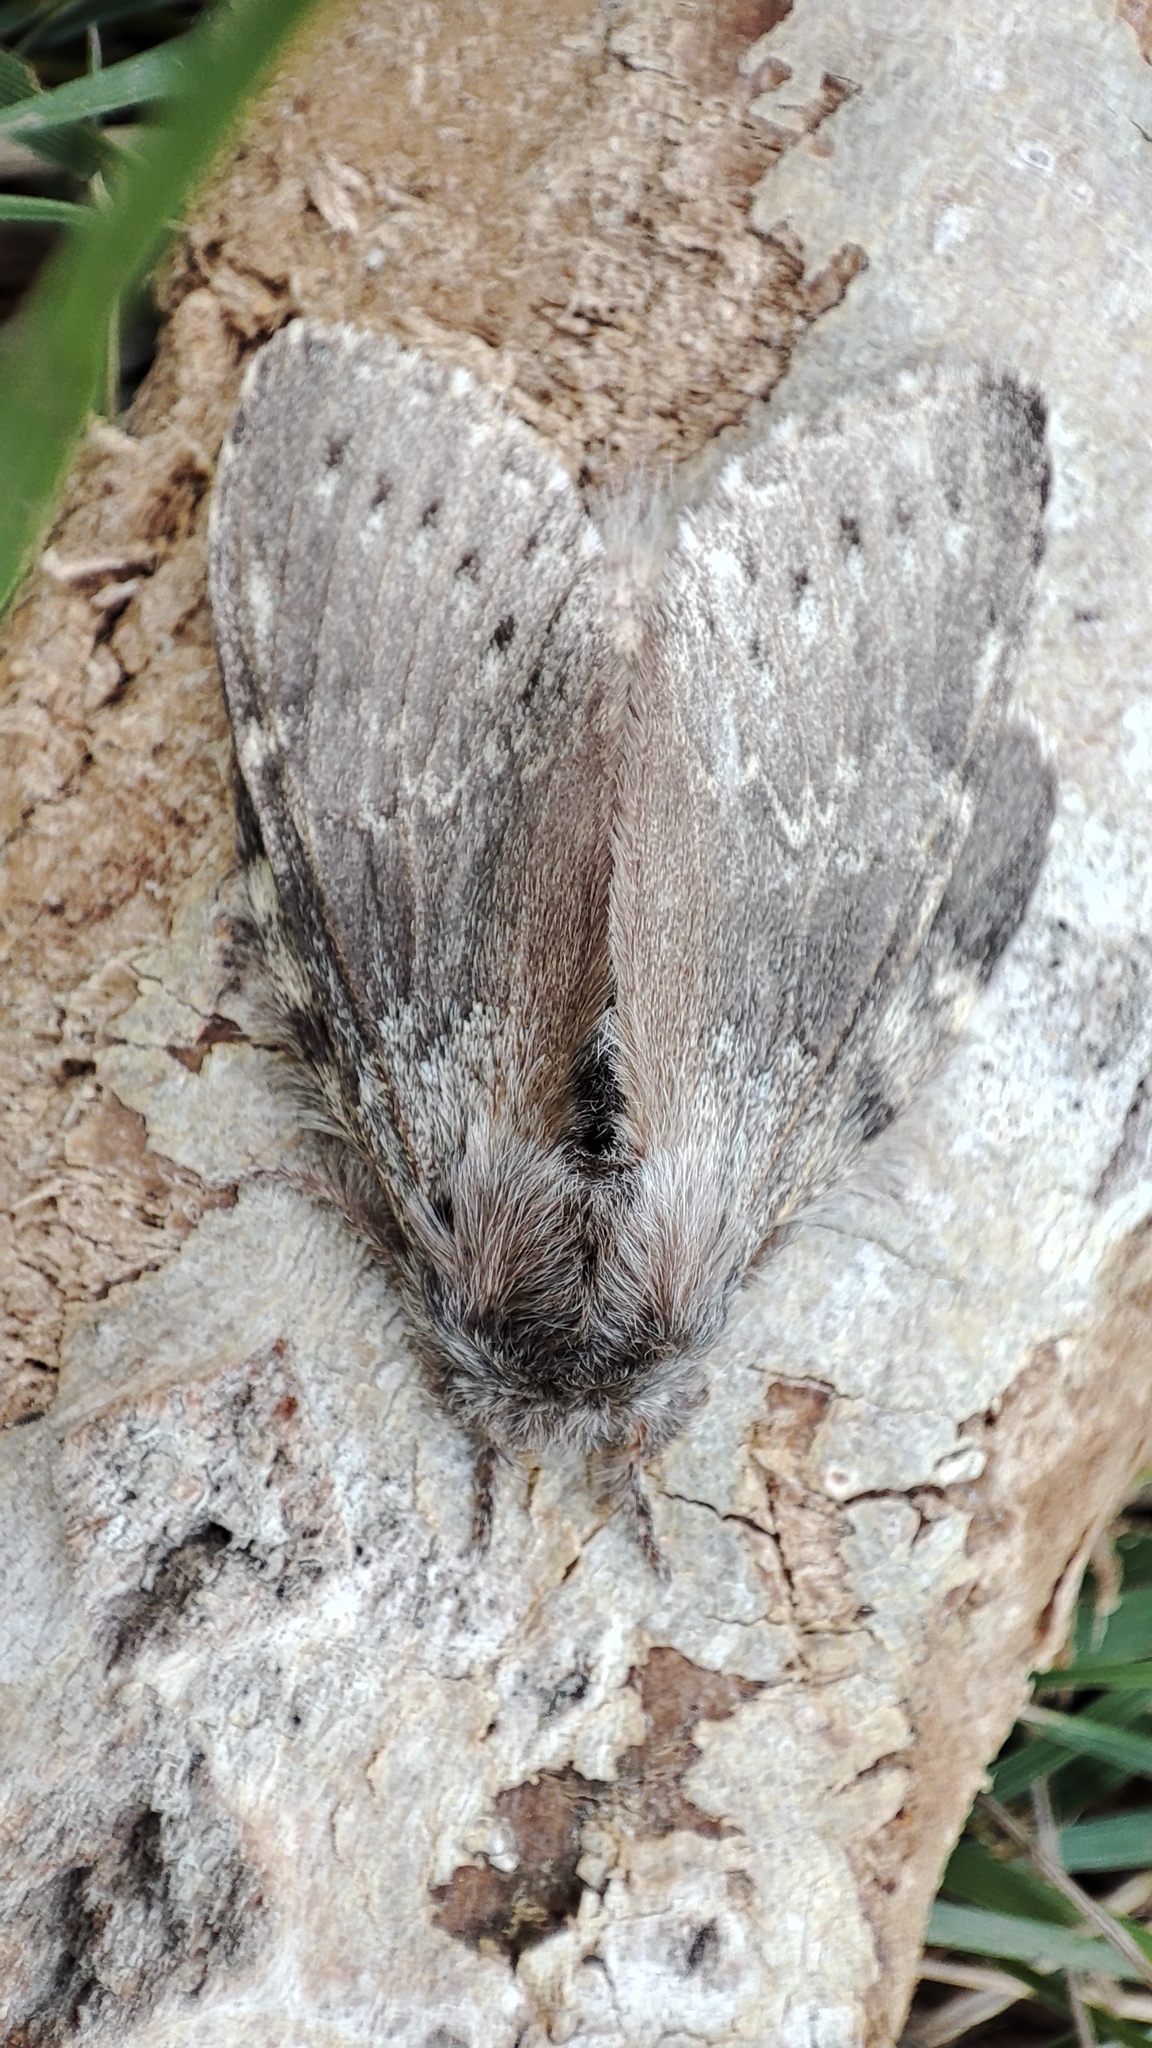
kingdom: Animalia
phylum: Arthropoda
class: Insecta
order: Lepidoptera
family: Notodontidae
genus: Stauropus
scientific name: Stauropus fagi
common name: Lobster moth
